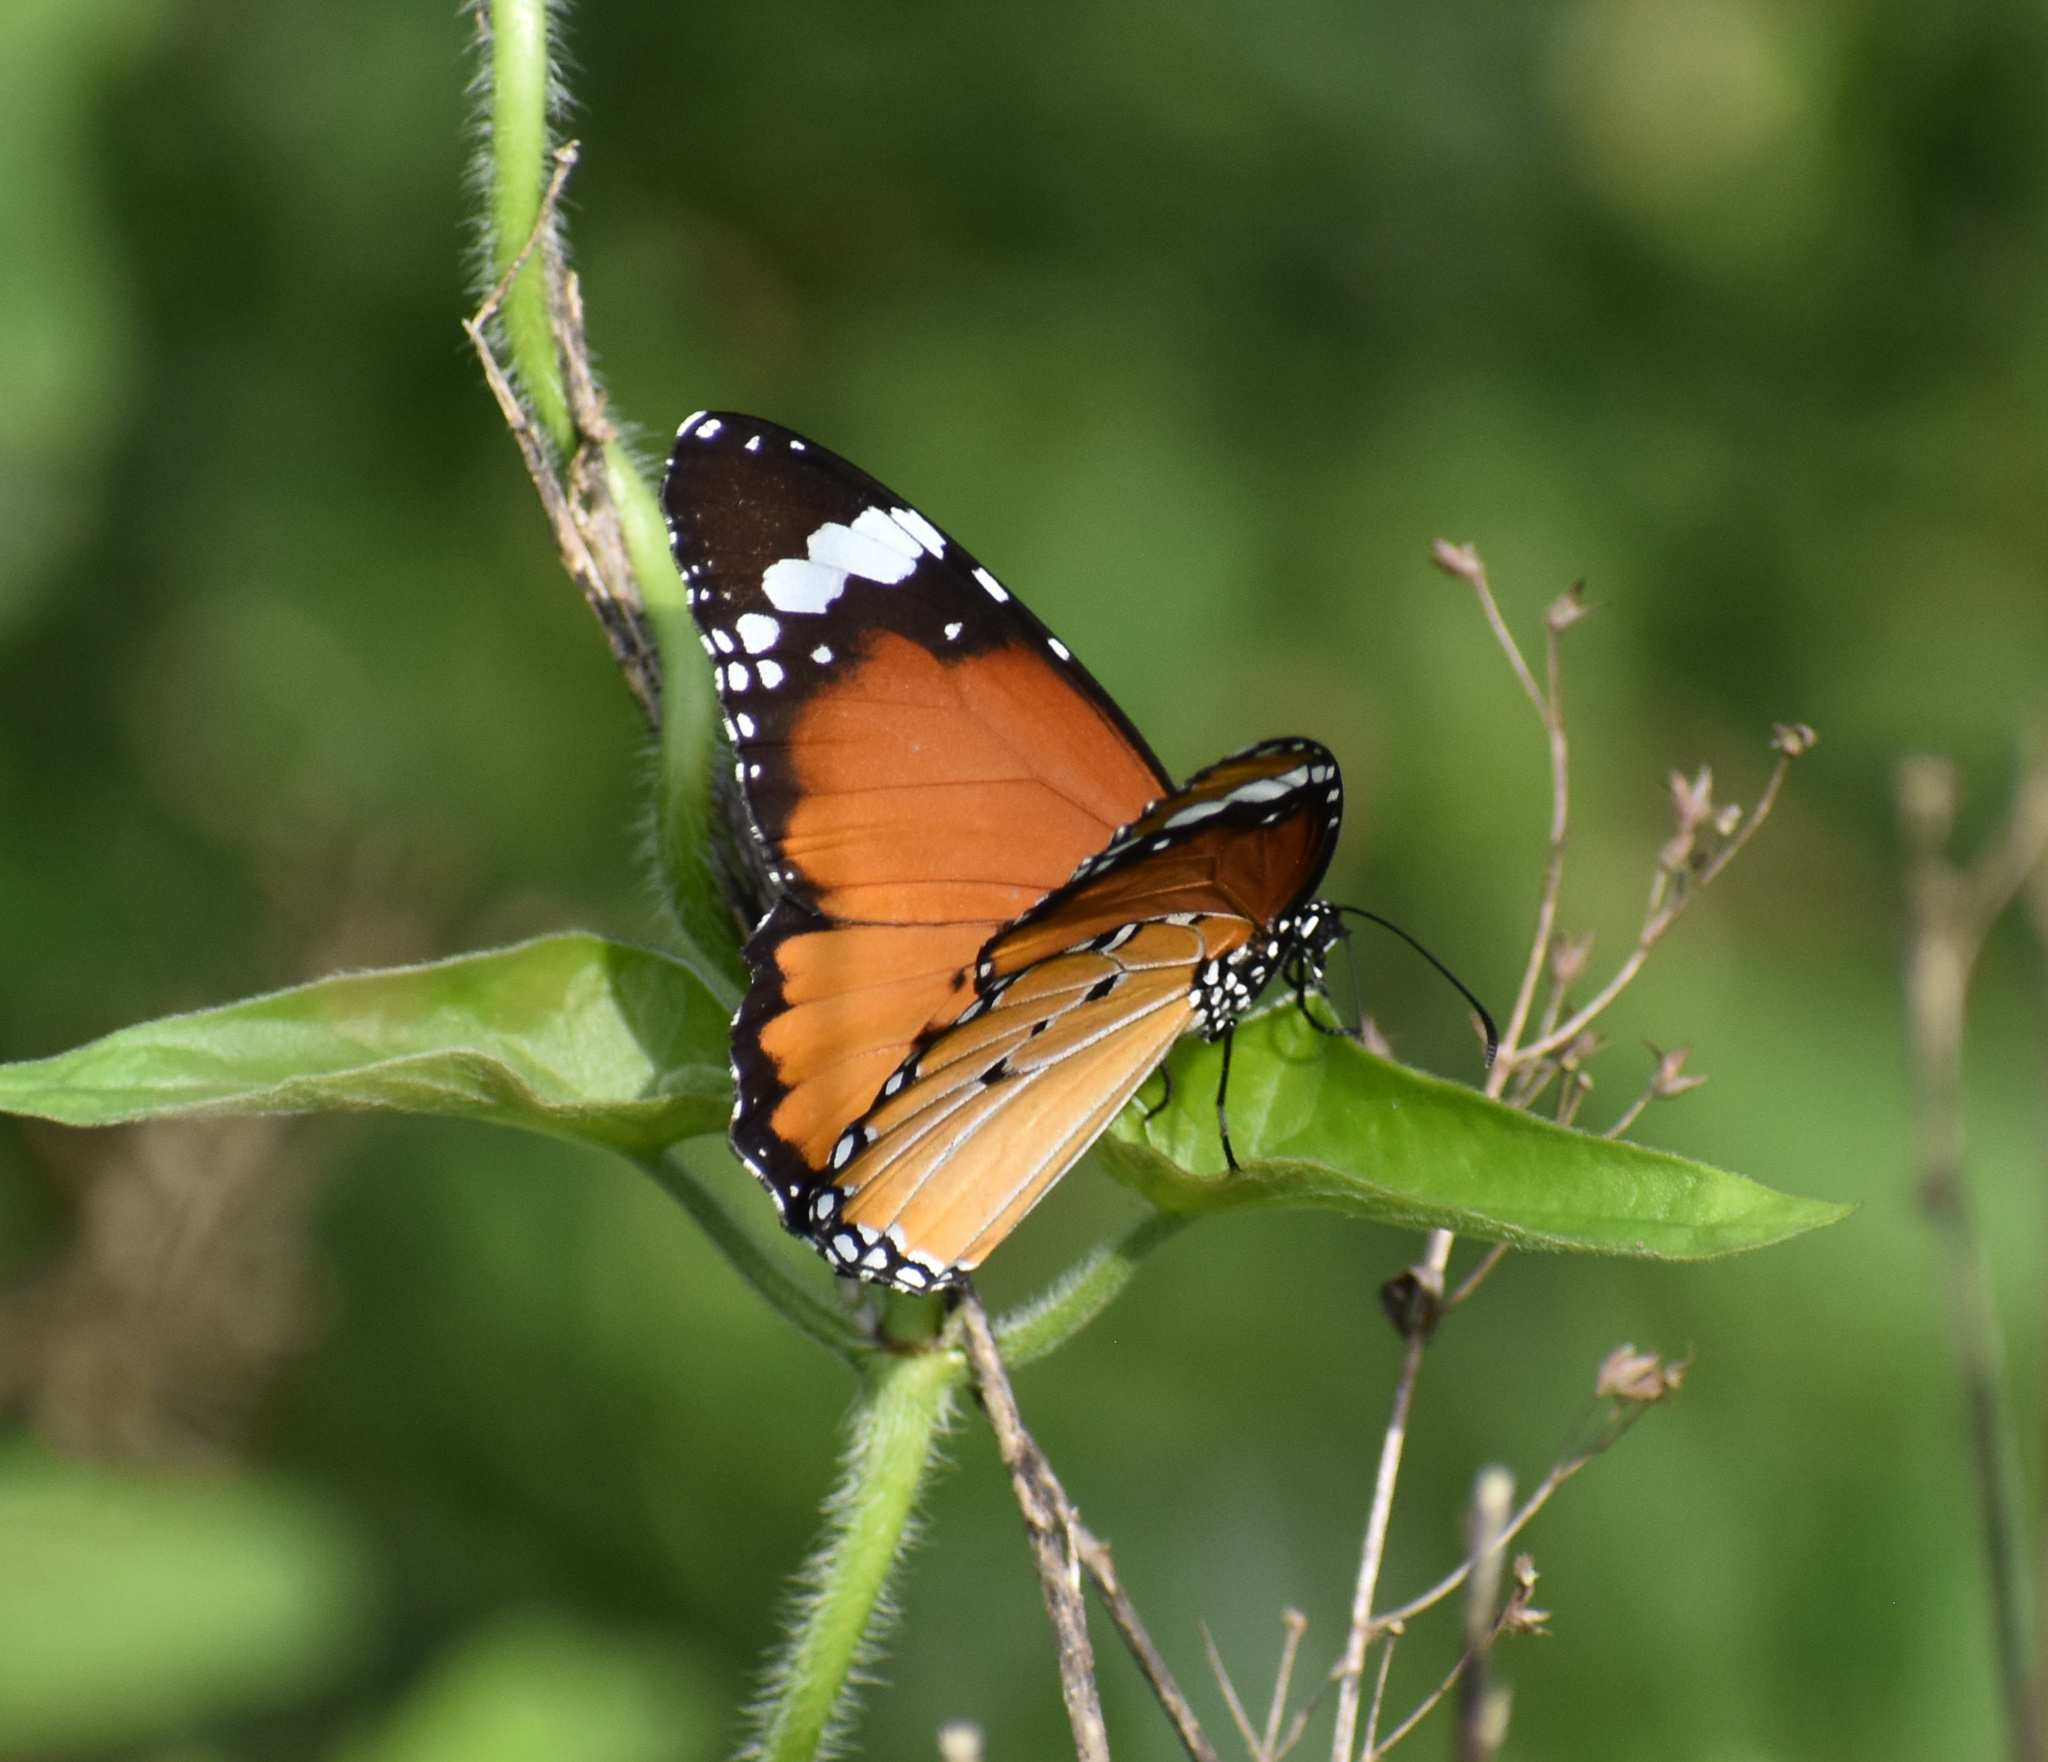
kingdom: Animalia
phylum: Arthropoda
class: Insecta
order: Lepidoptera
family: Nymphalidae
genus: Danaus
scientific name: Danaus chrysippus
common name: Plain tiger
